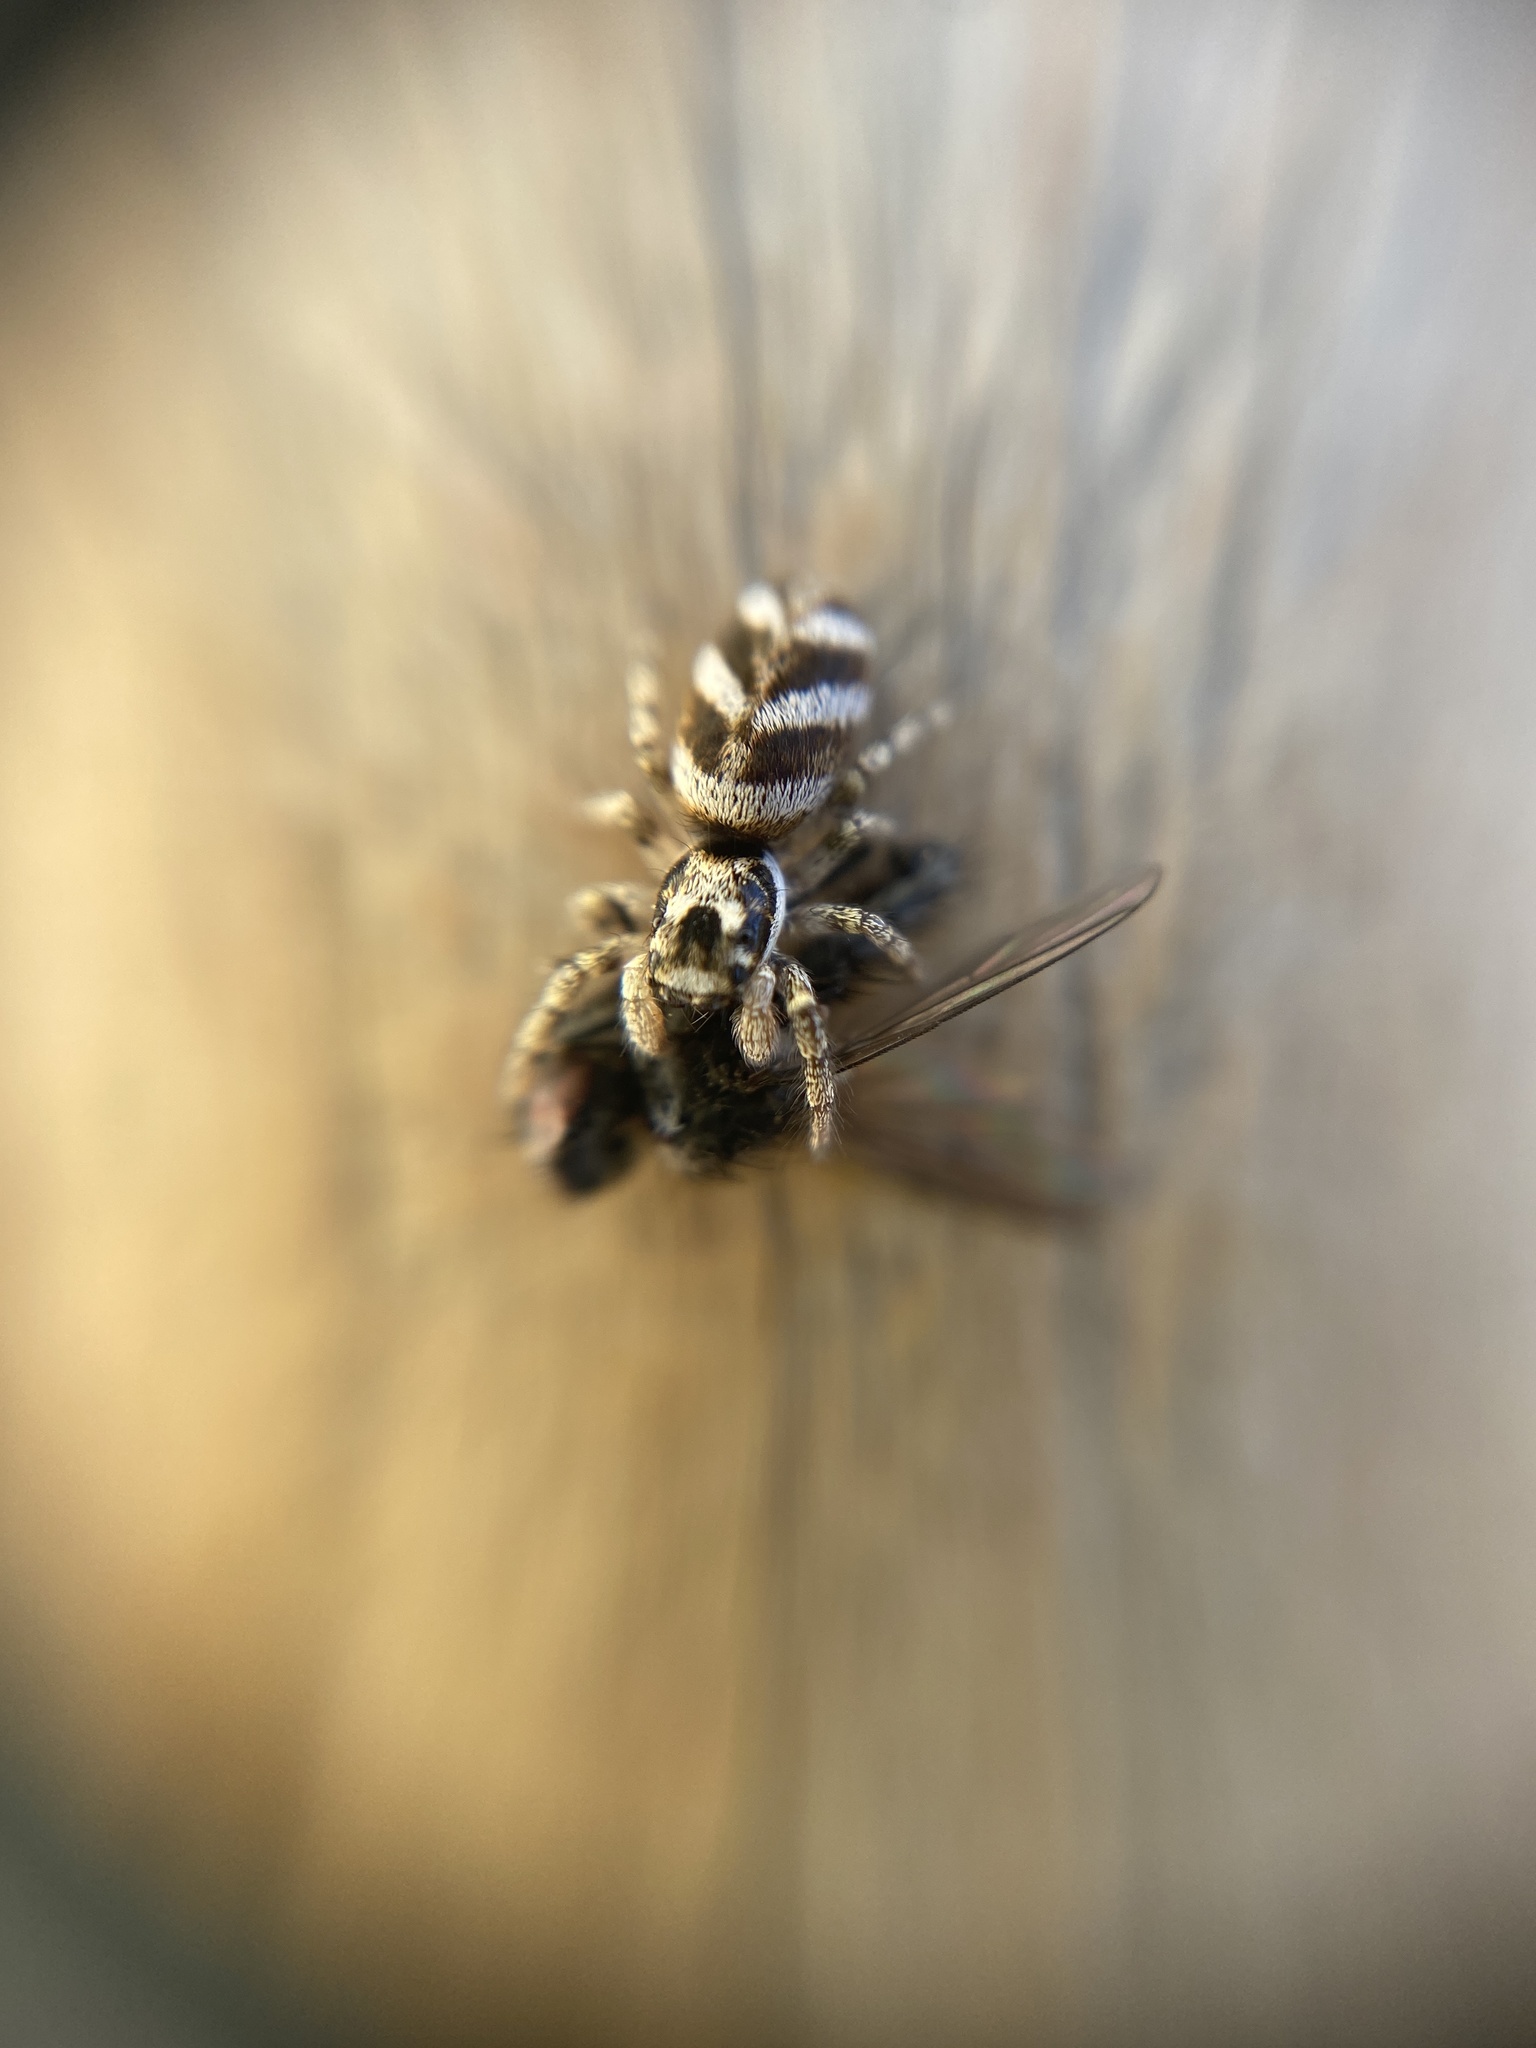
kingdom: Animalia
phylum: Arthropoda
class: Arachnida
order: Araneae
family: Salticidae
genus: Salticus
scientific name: Salticus scenicus
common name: Zebra jumper
